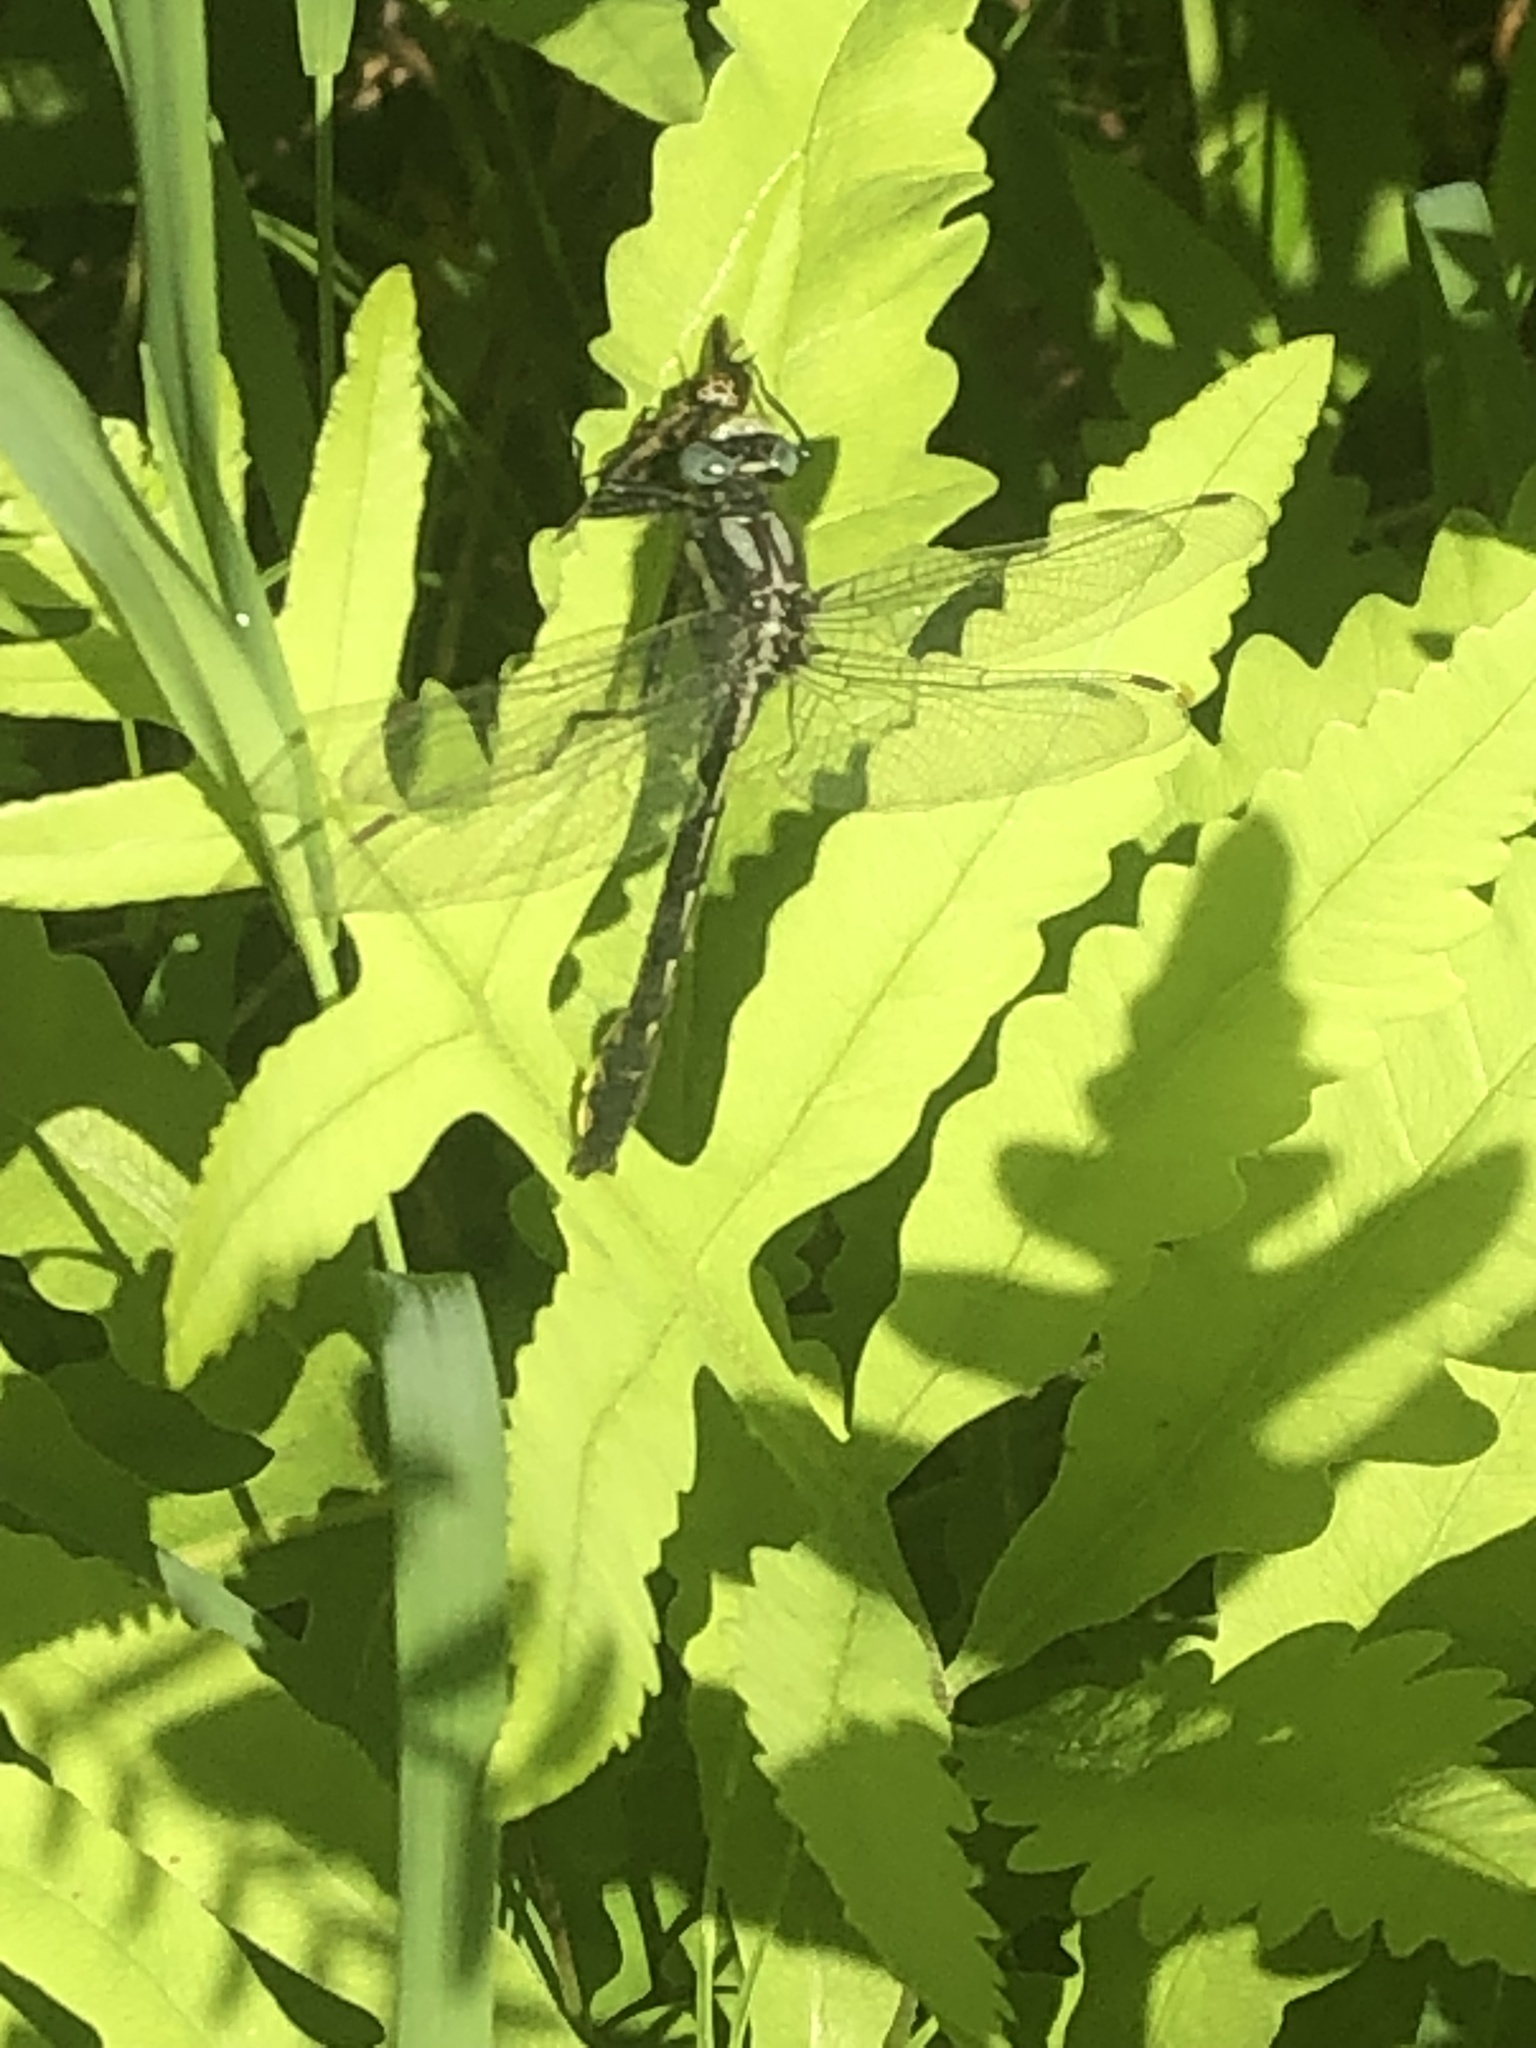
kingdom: Animalia
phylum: Arthropoda
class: Insecta
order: Odonata
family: Gomphidae
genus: Phanogomphus
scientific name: Phanogomphus borealis
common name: Beaverpond clubtail
